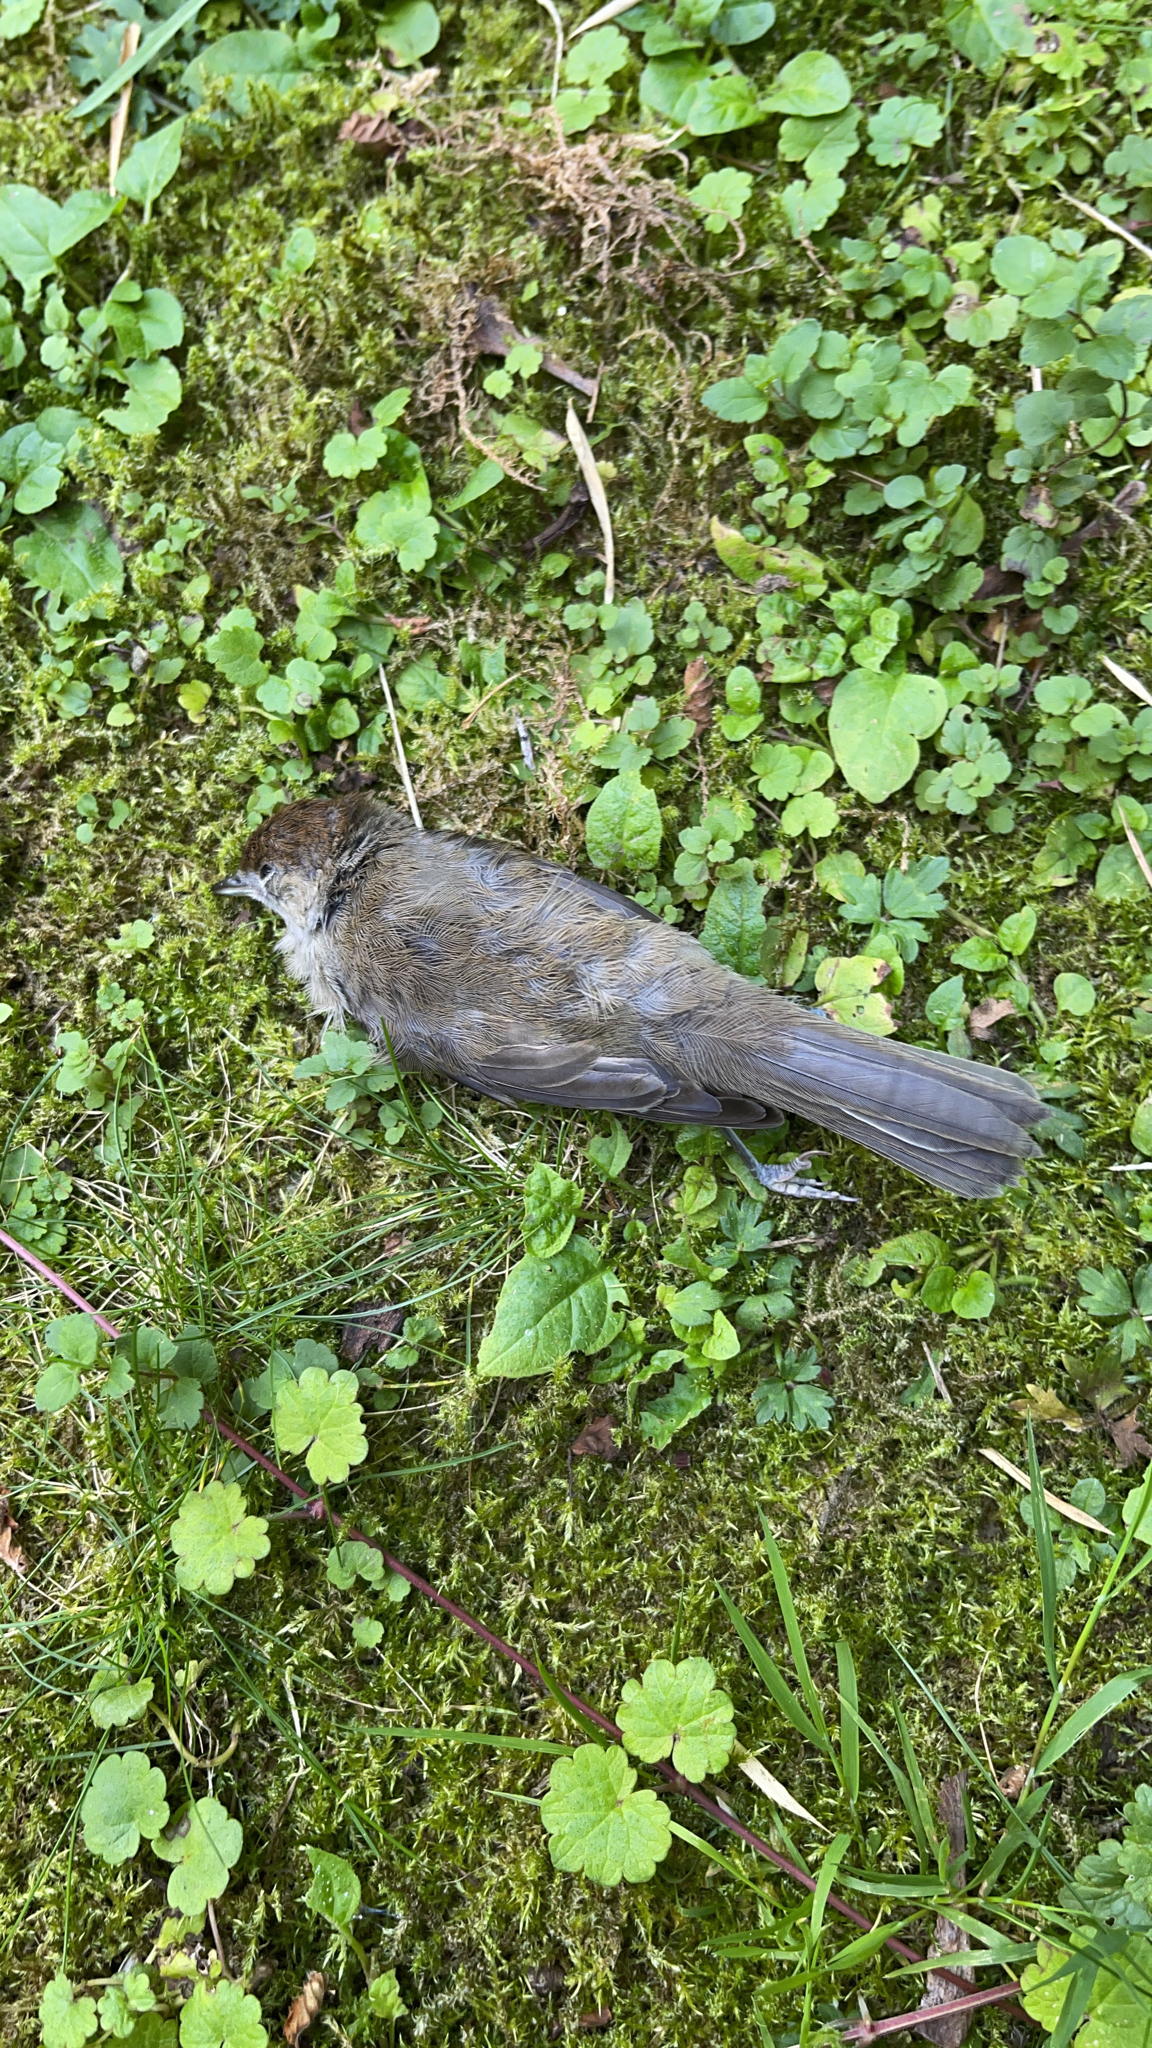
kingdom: Animalia
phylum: Chordata
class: Aves
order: Passeriformes
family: Sylviidae
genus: Sylvia
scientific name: Sylvia atricapilla
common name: Eurasian blackcap
